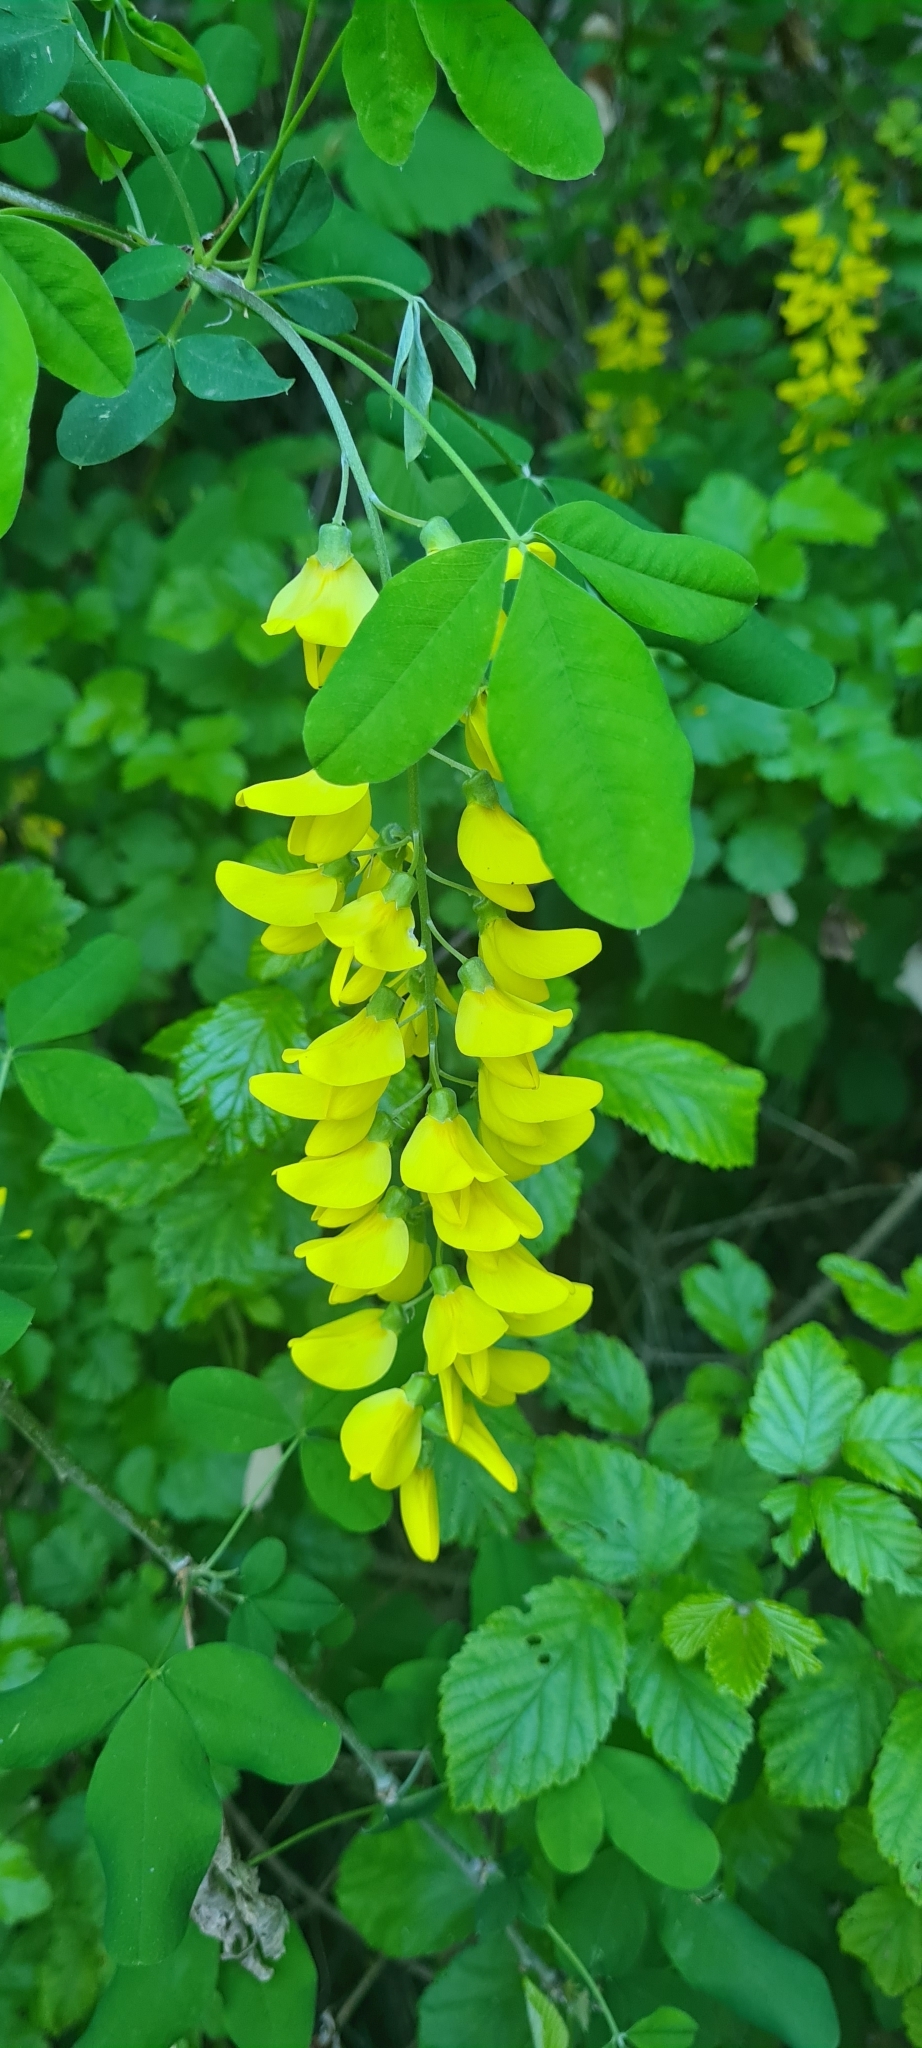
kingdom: Plantae
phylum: Tracheophyta
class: Magnoliopsida
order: Fabales
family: Fabaceae
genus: Laburnum
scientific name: Laburnum anagyroides
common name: Laburnum
